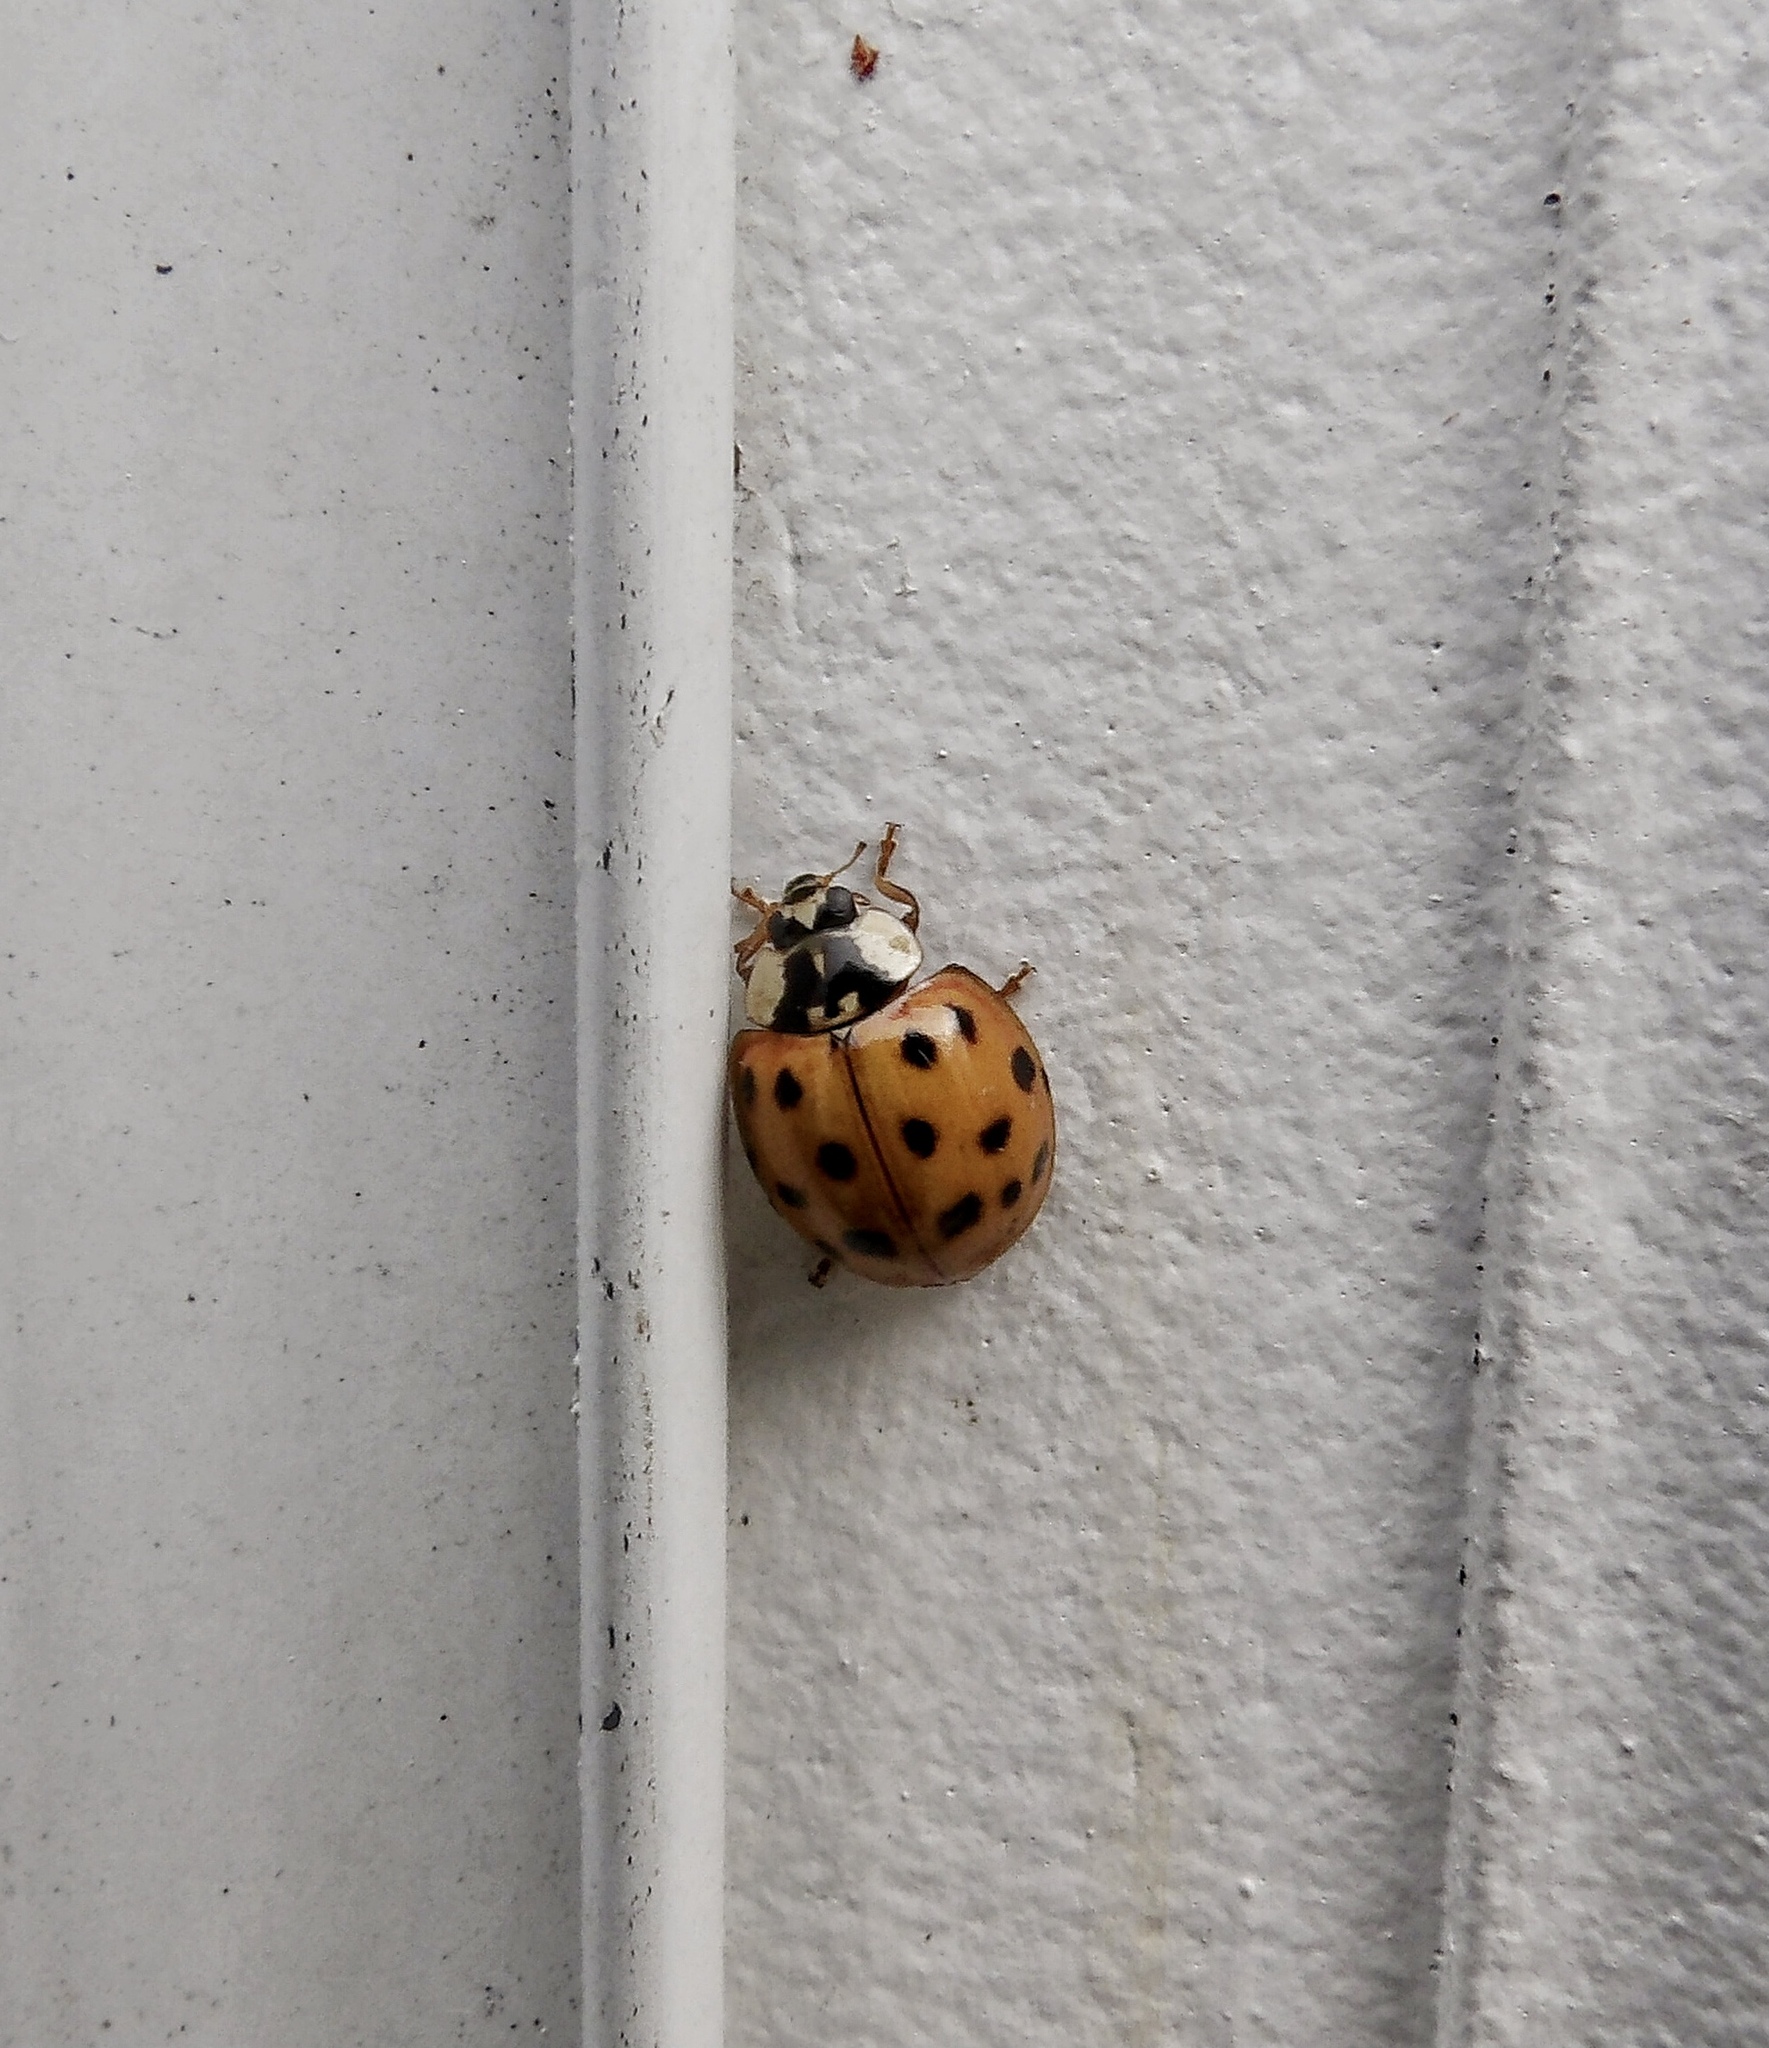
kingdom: Animalia
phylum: Arthropoda
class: Insecta
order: Coleoptera
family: Coccinellidae
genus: Harmonia
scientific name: Harmonia axyridis
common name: Harlequin ladybird
